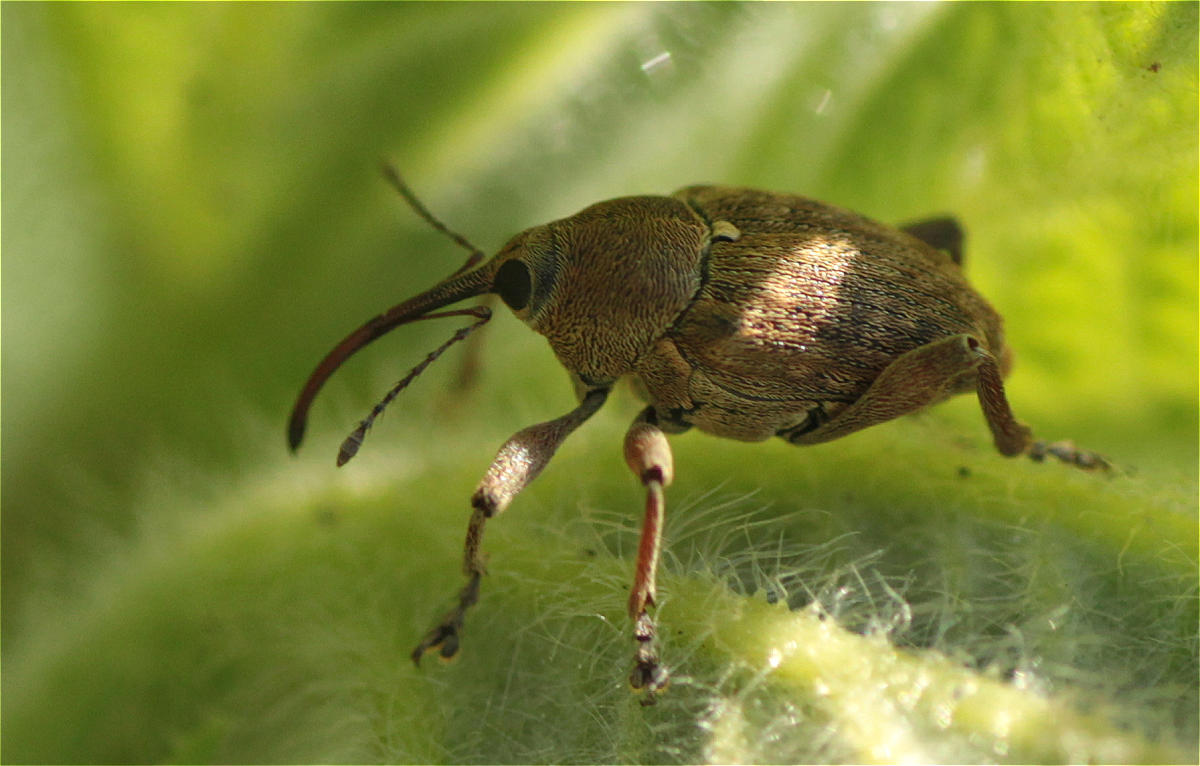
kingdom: Animalia
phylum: Arthropoda
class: Insecta
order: Coleoptera
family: Curculionidae
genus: Curculio
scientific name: Curculio glandium
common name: Acorn weevil
